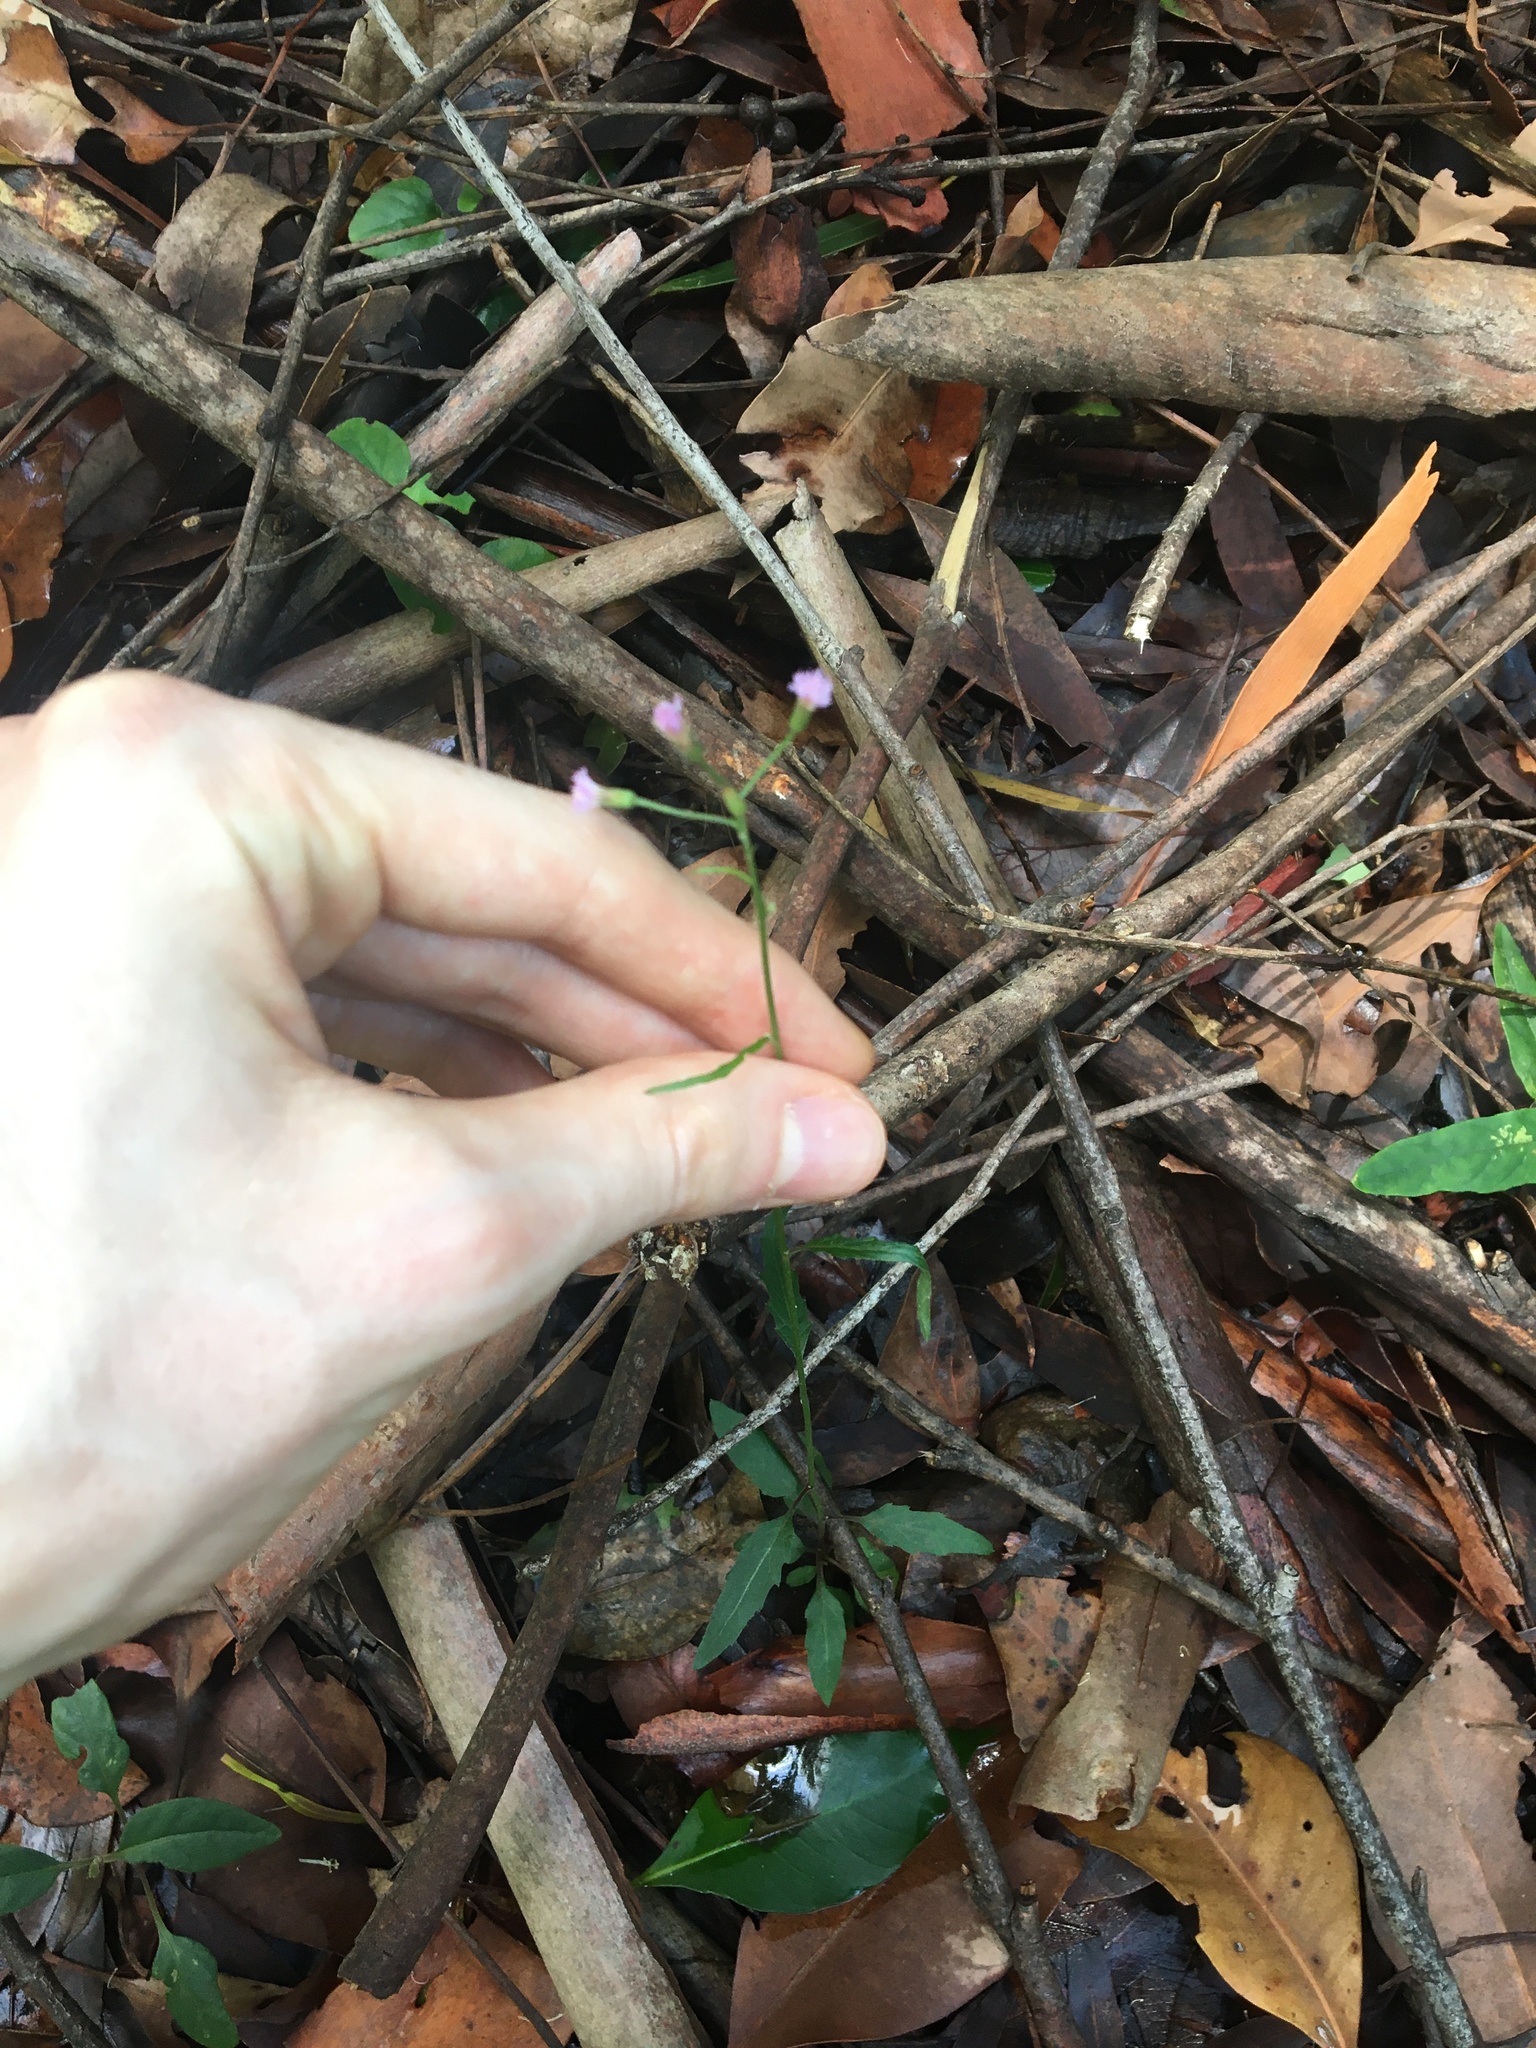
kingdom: Plantae
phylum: Tracheophyta
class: Magnoliopsida
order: Asterales
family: Asteraceae
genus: Cyanthillium
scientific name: Cyanthillium cinereum
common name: Little ironweed
